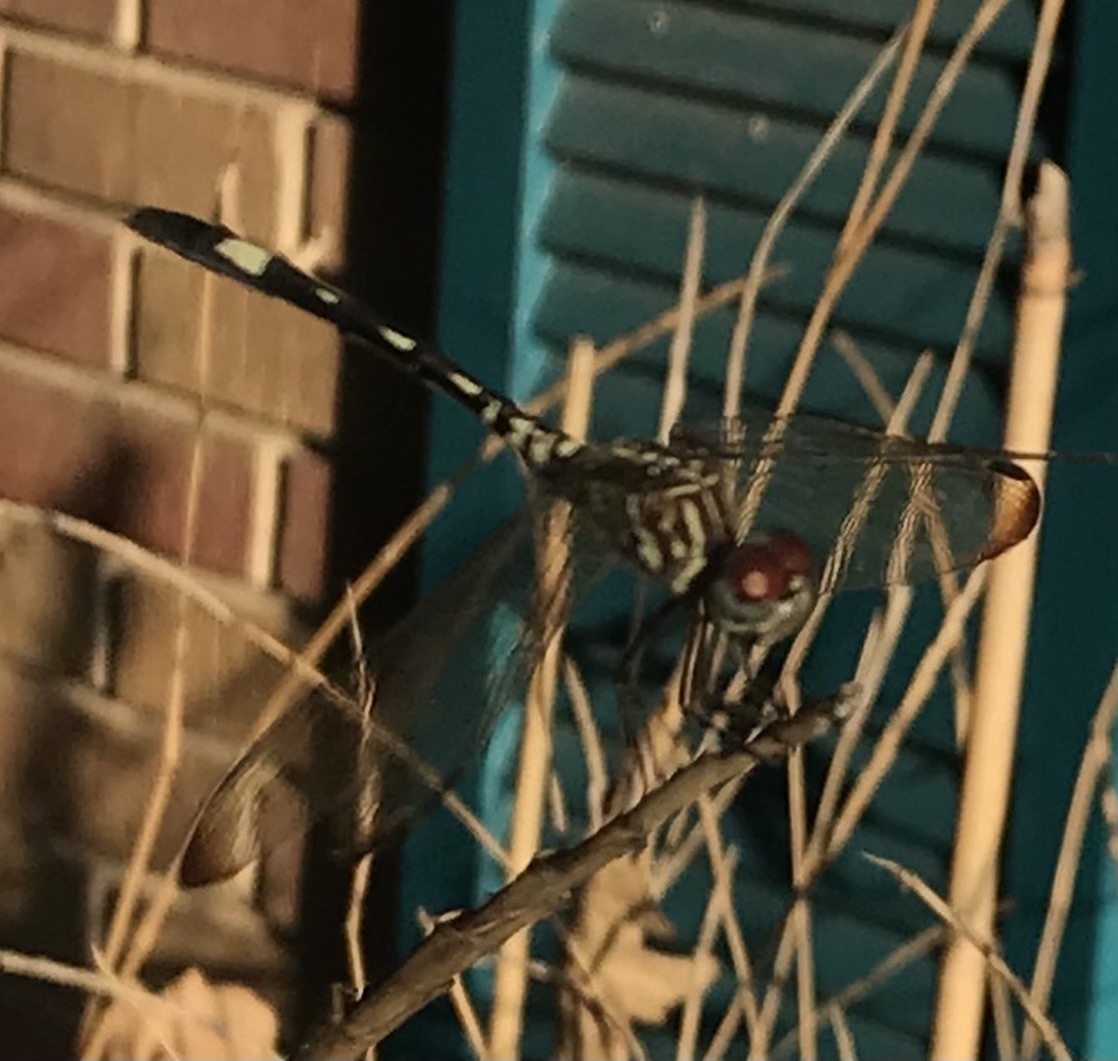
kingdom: Animalia
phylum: Arthropoda
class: Insecta
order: Odonata
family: Libellulidae
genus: Dythemis
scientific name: Dythemis velox
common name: Swift setwing
